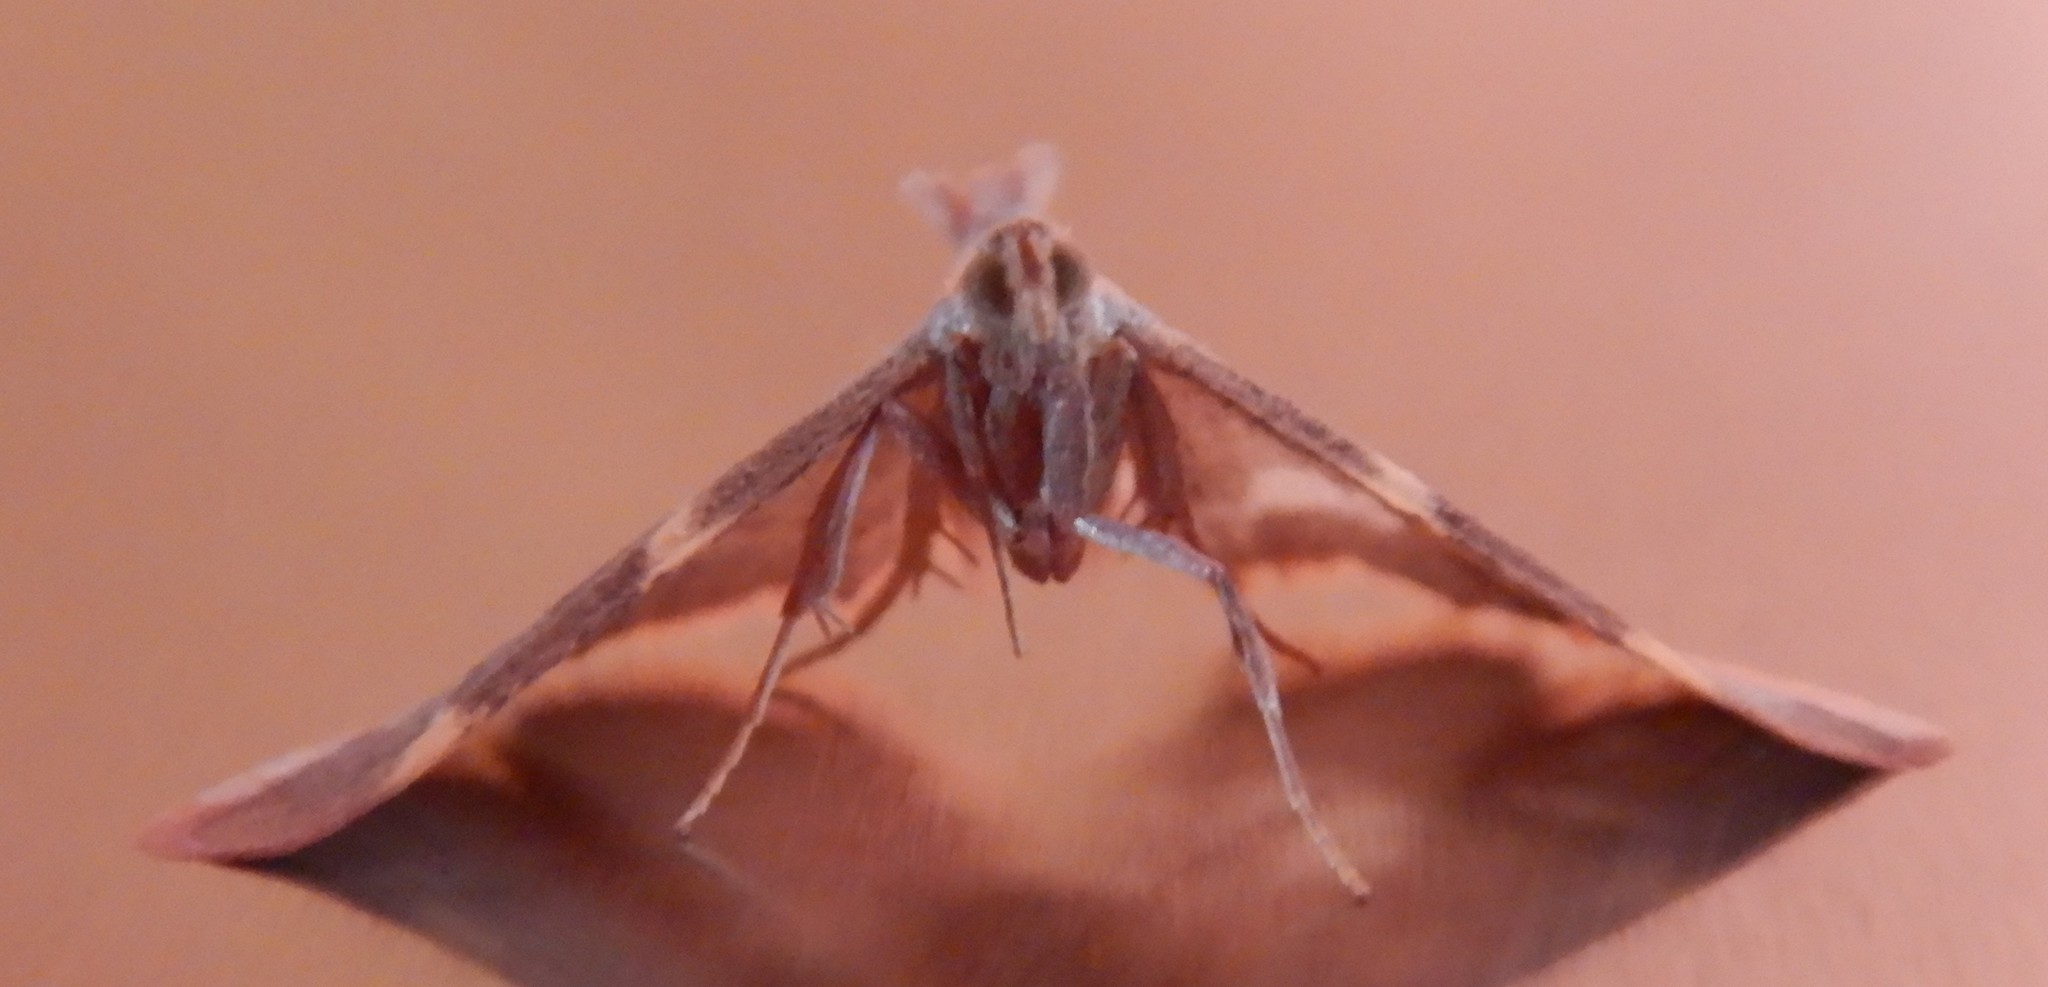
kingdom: Animalia
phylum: Arthropoda
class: Insecta
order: Lepidoptera
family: Pyralidae
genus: Hypsopygia
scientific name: Hypsopygia olinalis
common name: Yellow-fringed dolichomia moth
